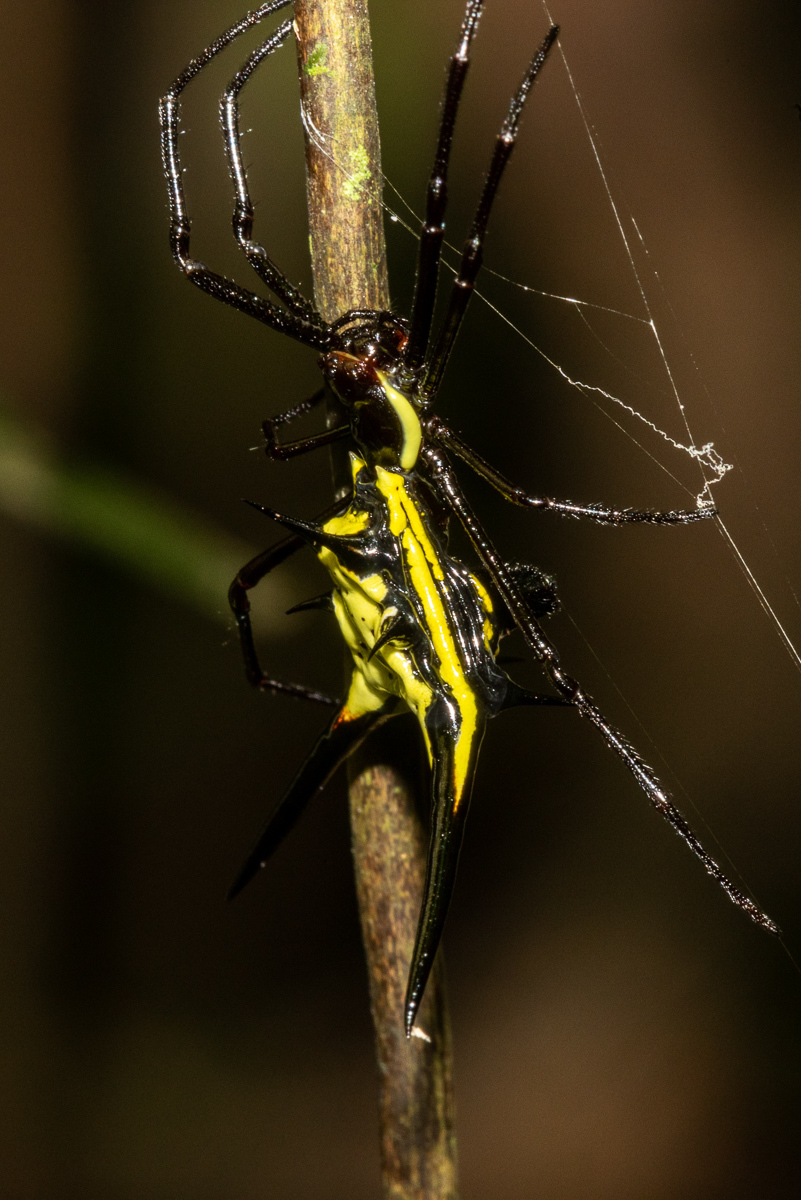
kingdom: Animalia
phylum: Arthropoda
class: Arachnida
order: Araneae
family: Araneidae
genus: Micrathena
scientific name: Micrathena schreibersi
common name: Orb weavers
